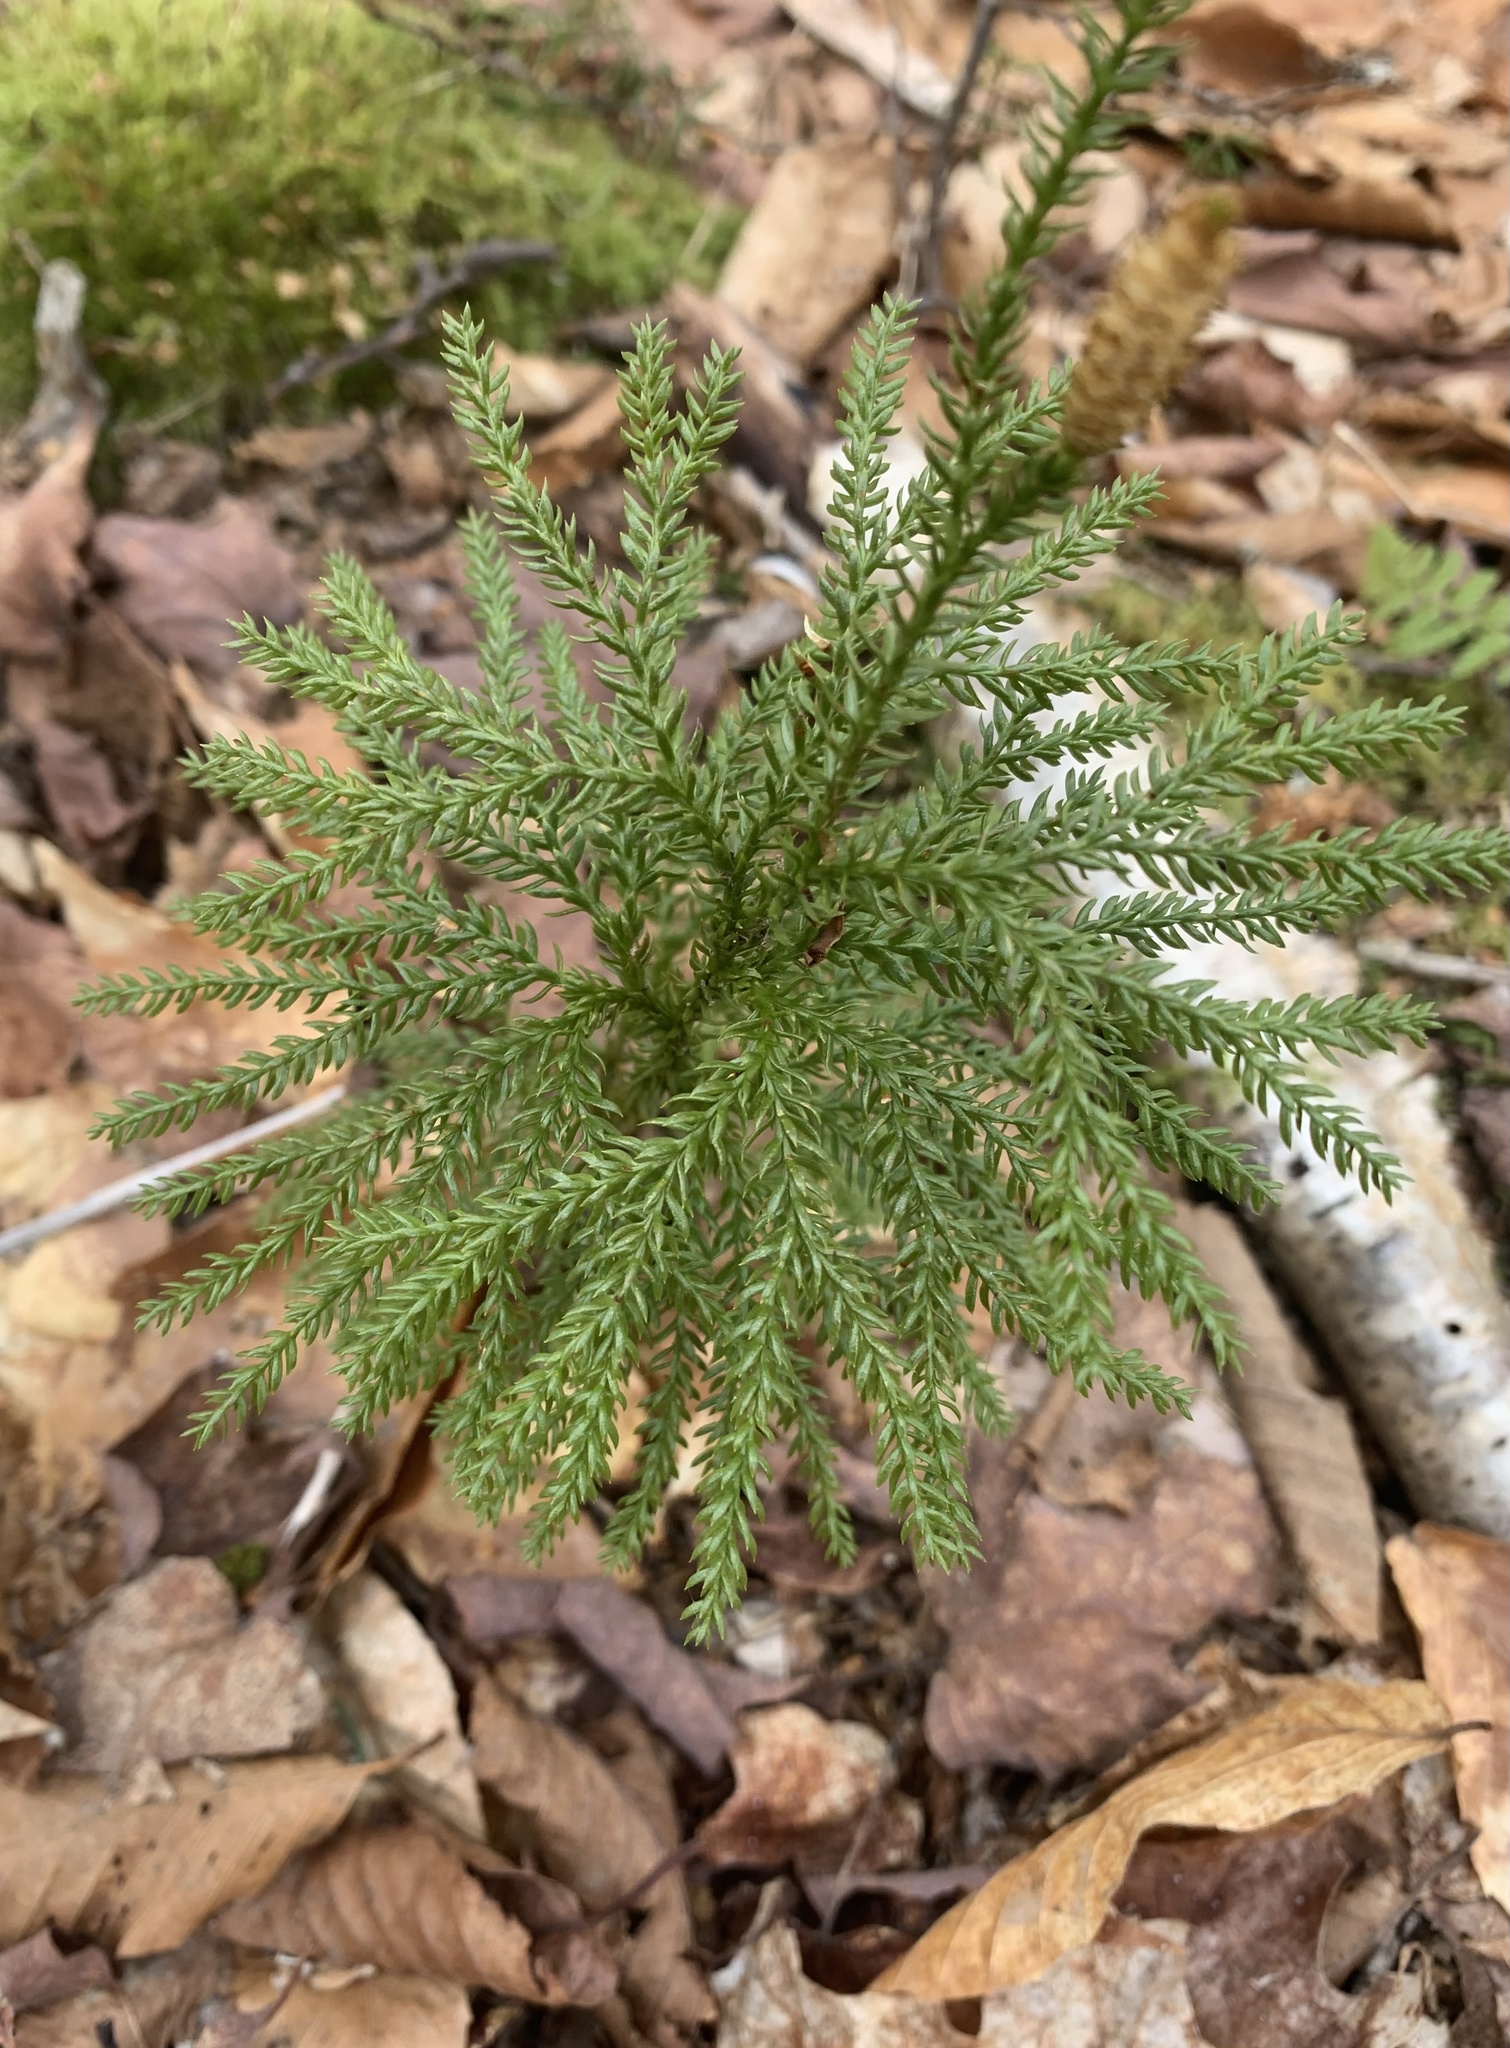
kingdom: Plantae
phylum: Tracheophyta
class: Lycopodiopsida
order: Lycopodiales
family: Lycopodiaceae
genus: Dendrolycopodium
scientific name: Dendrolycopodium dendroideum
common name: Northern tree-clubmoss
